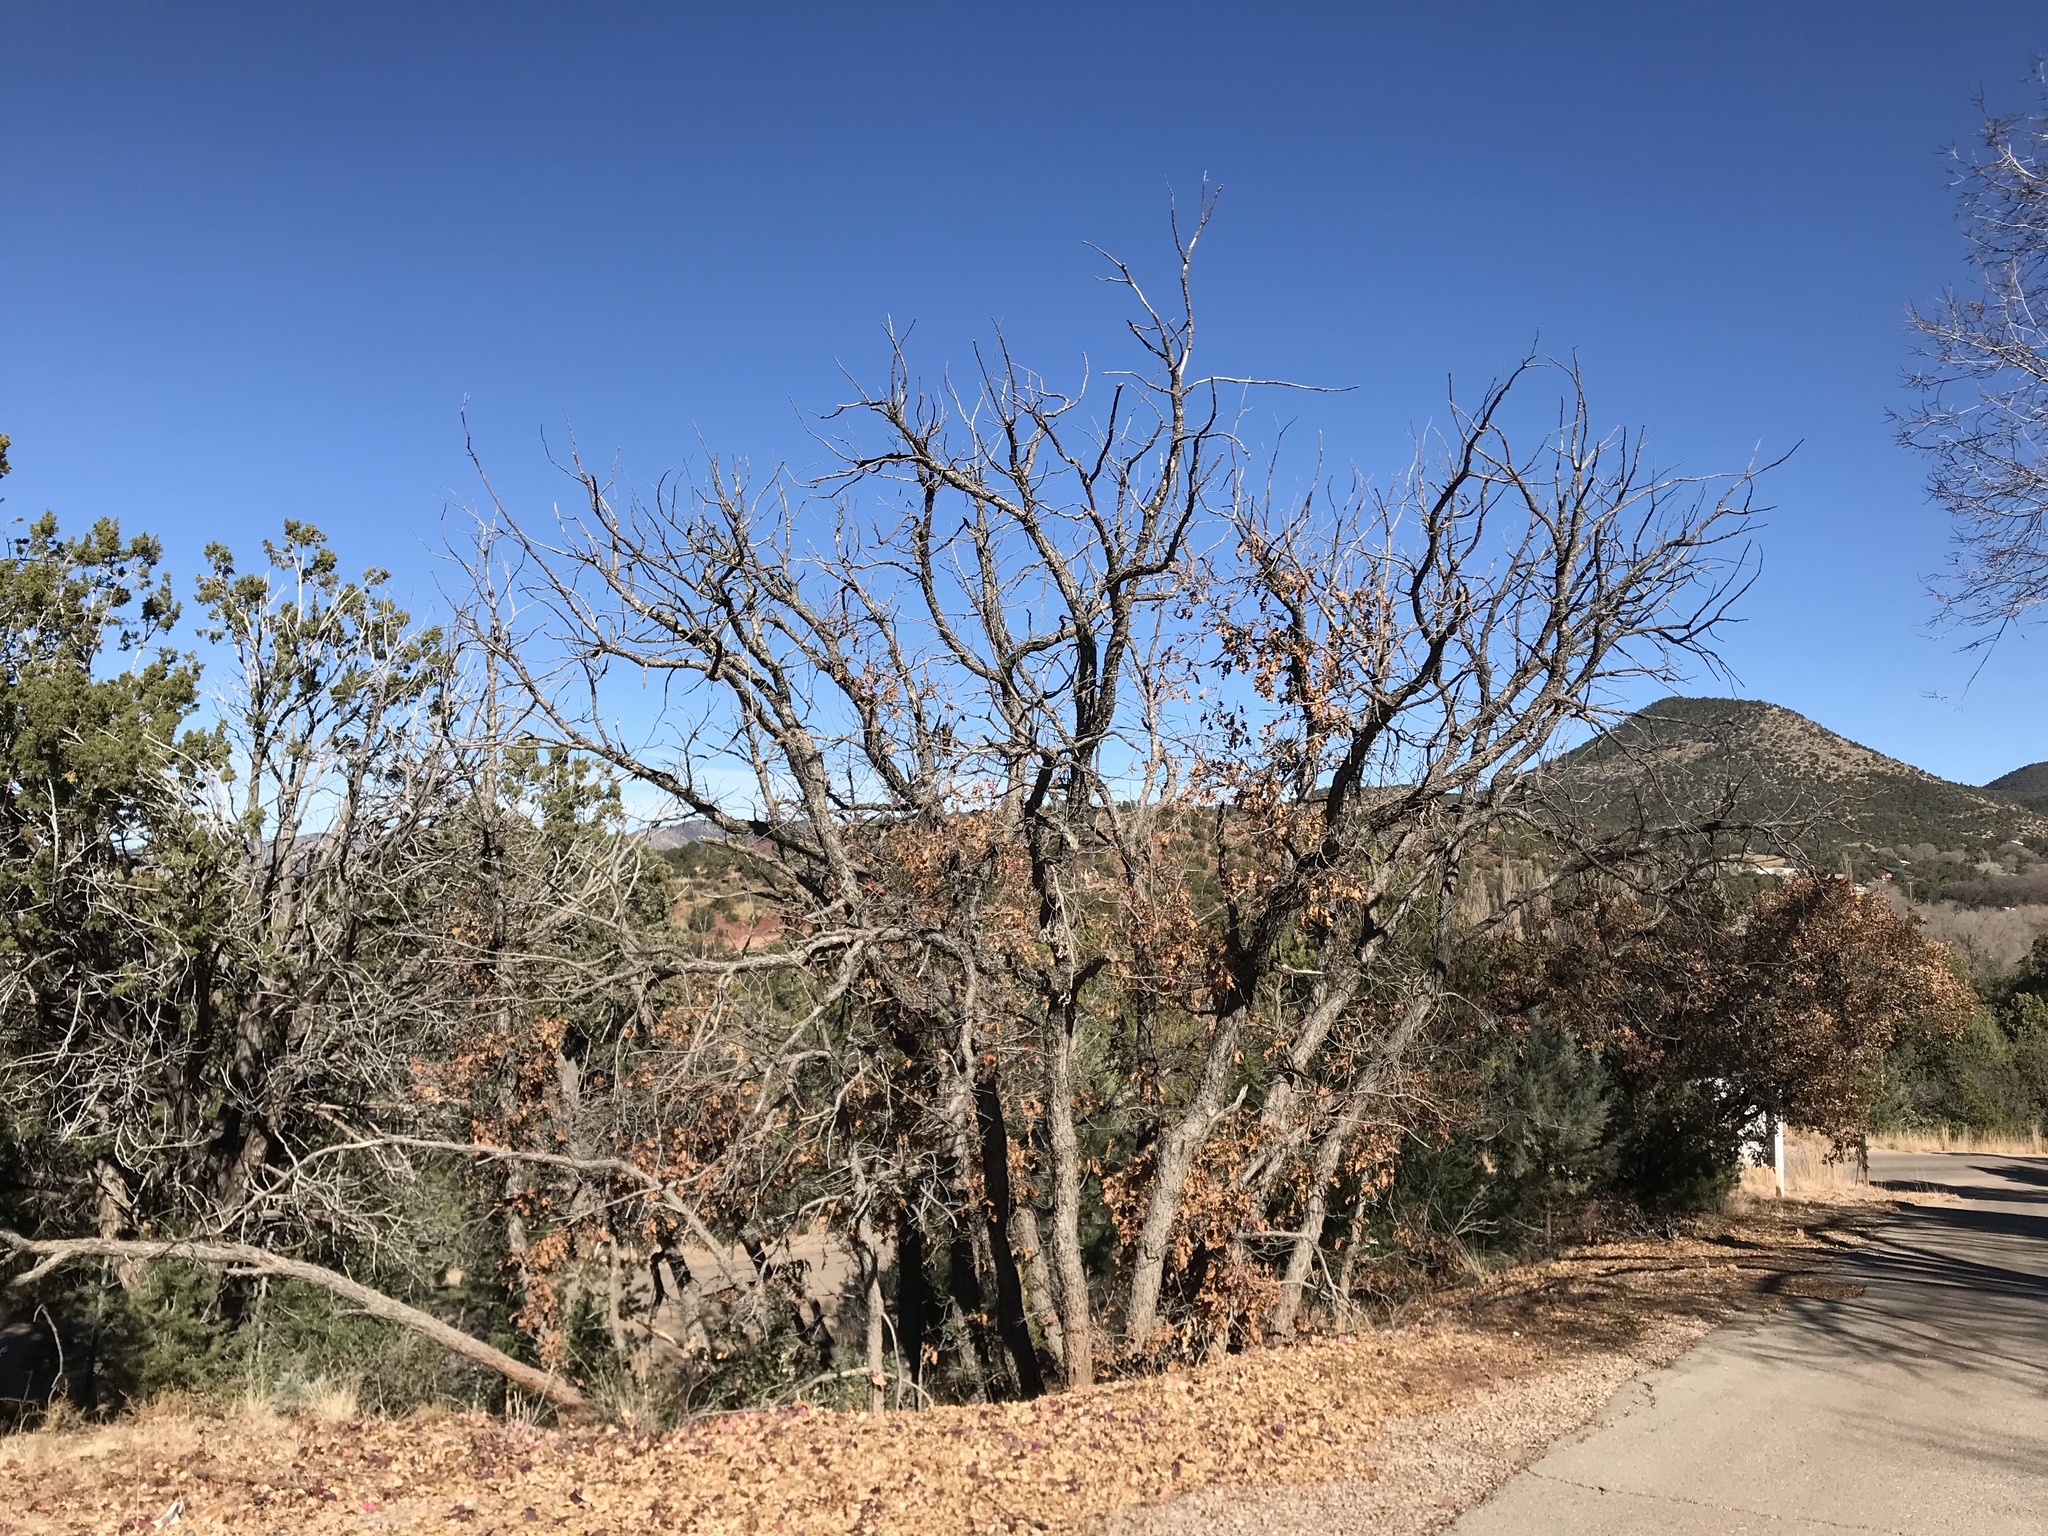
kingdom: Plantae
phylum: Tracheophyta
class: Magnoliopsida
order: Fagales
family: Fagaceae
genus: Quercus
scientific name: Quercus gambelii
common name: Gambel oak
